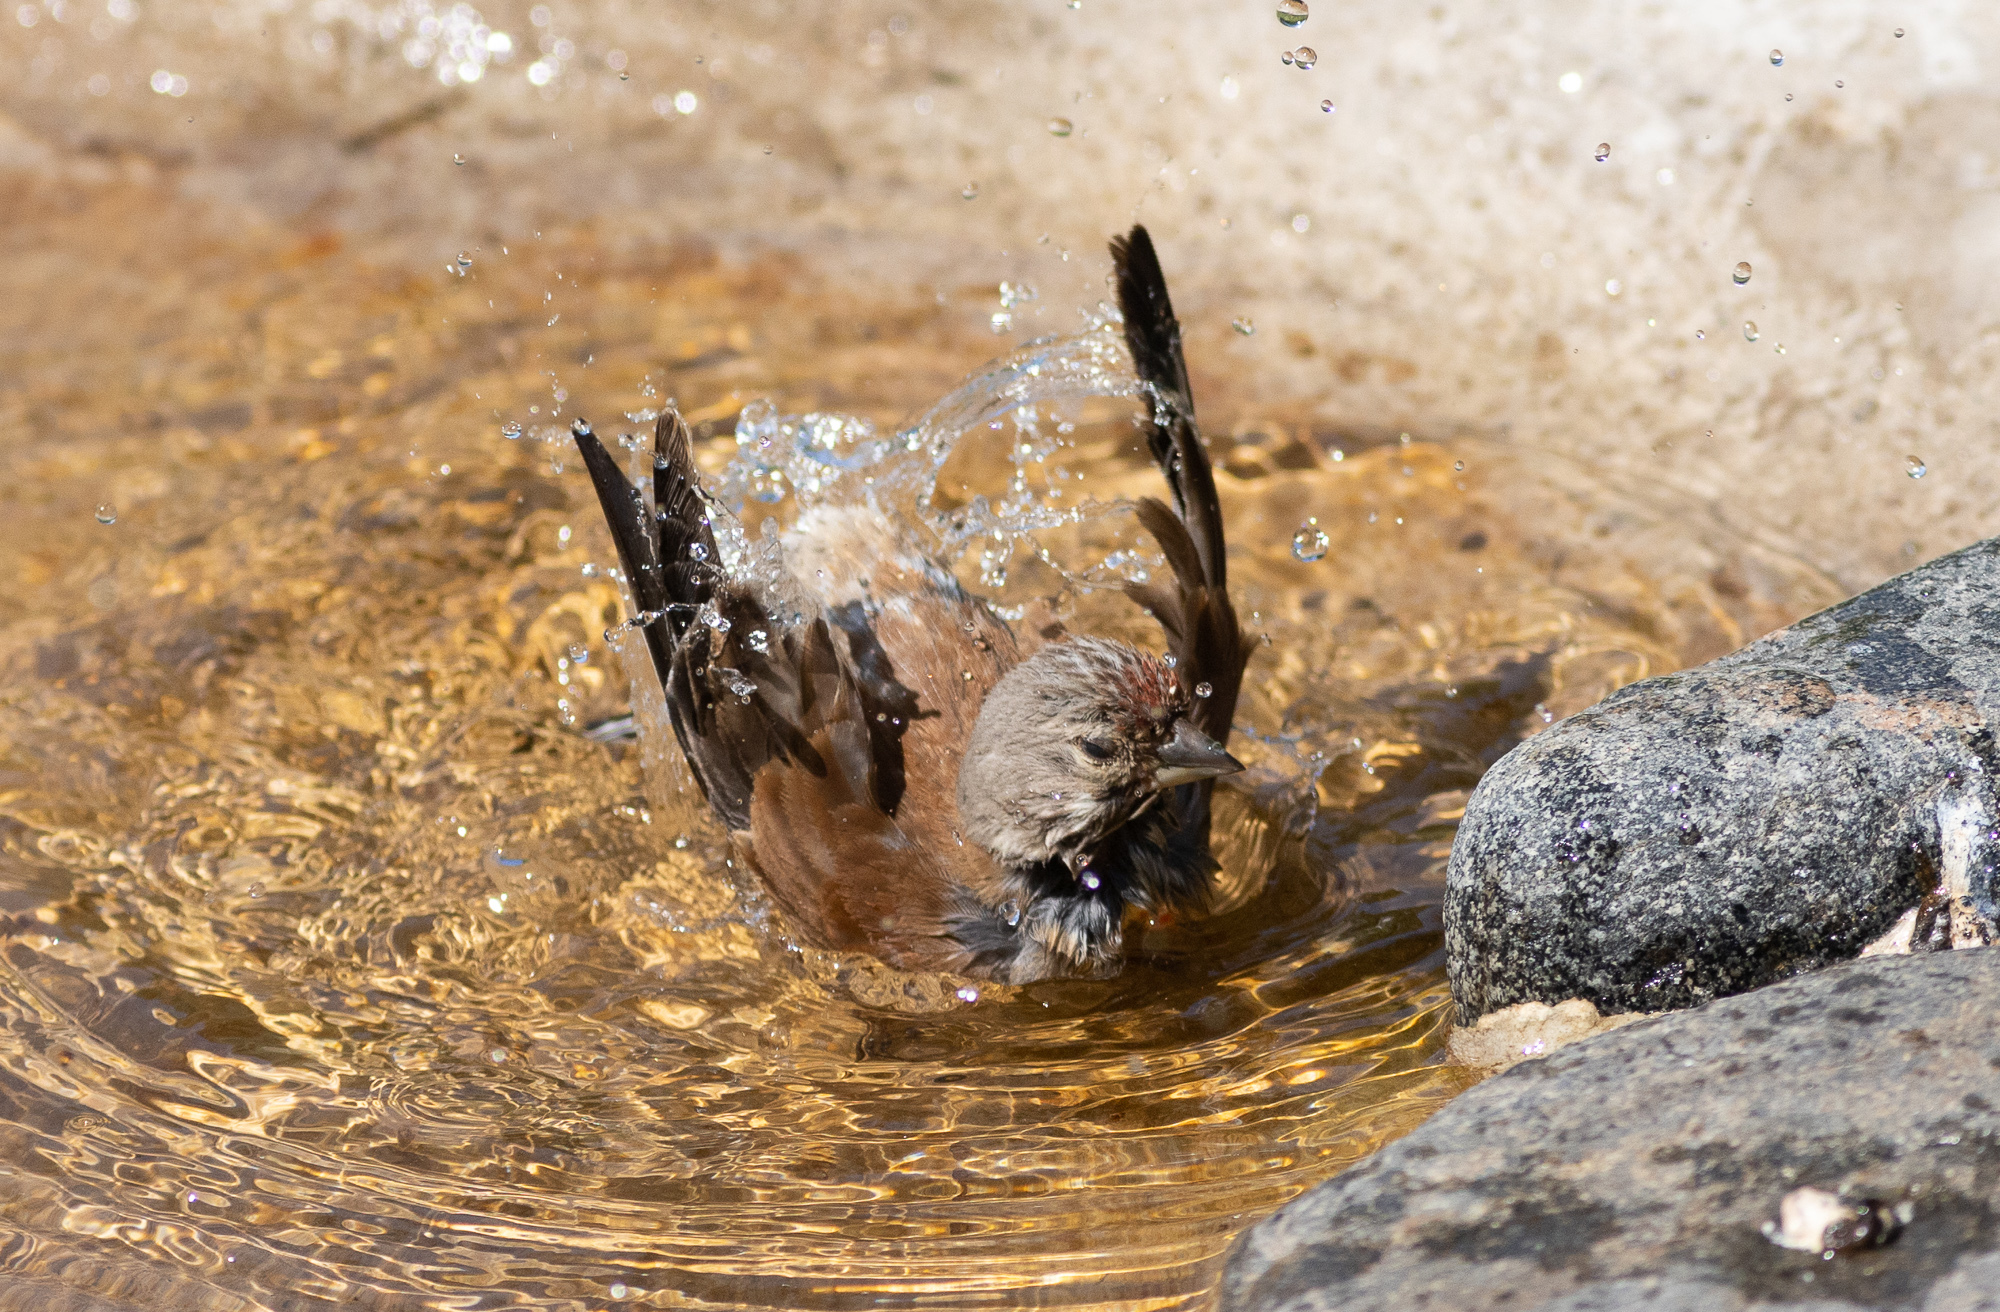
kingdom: Animalia
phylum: Chordata
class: Aves
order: Passeriformes
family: Fringillidae
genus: Linaria
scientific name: Linaria cannabina
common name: Common linnet
